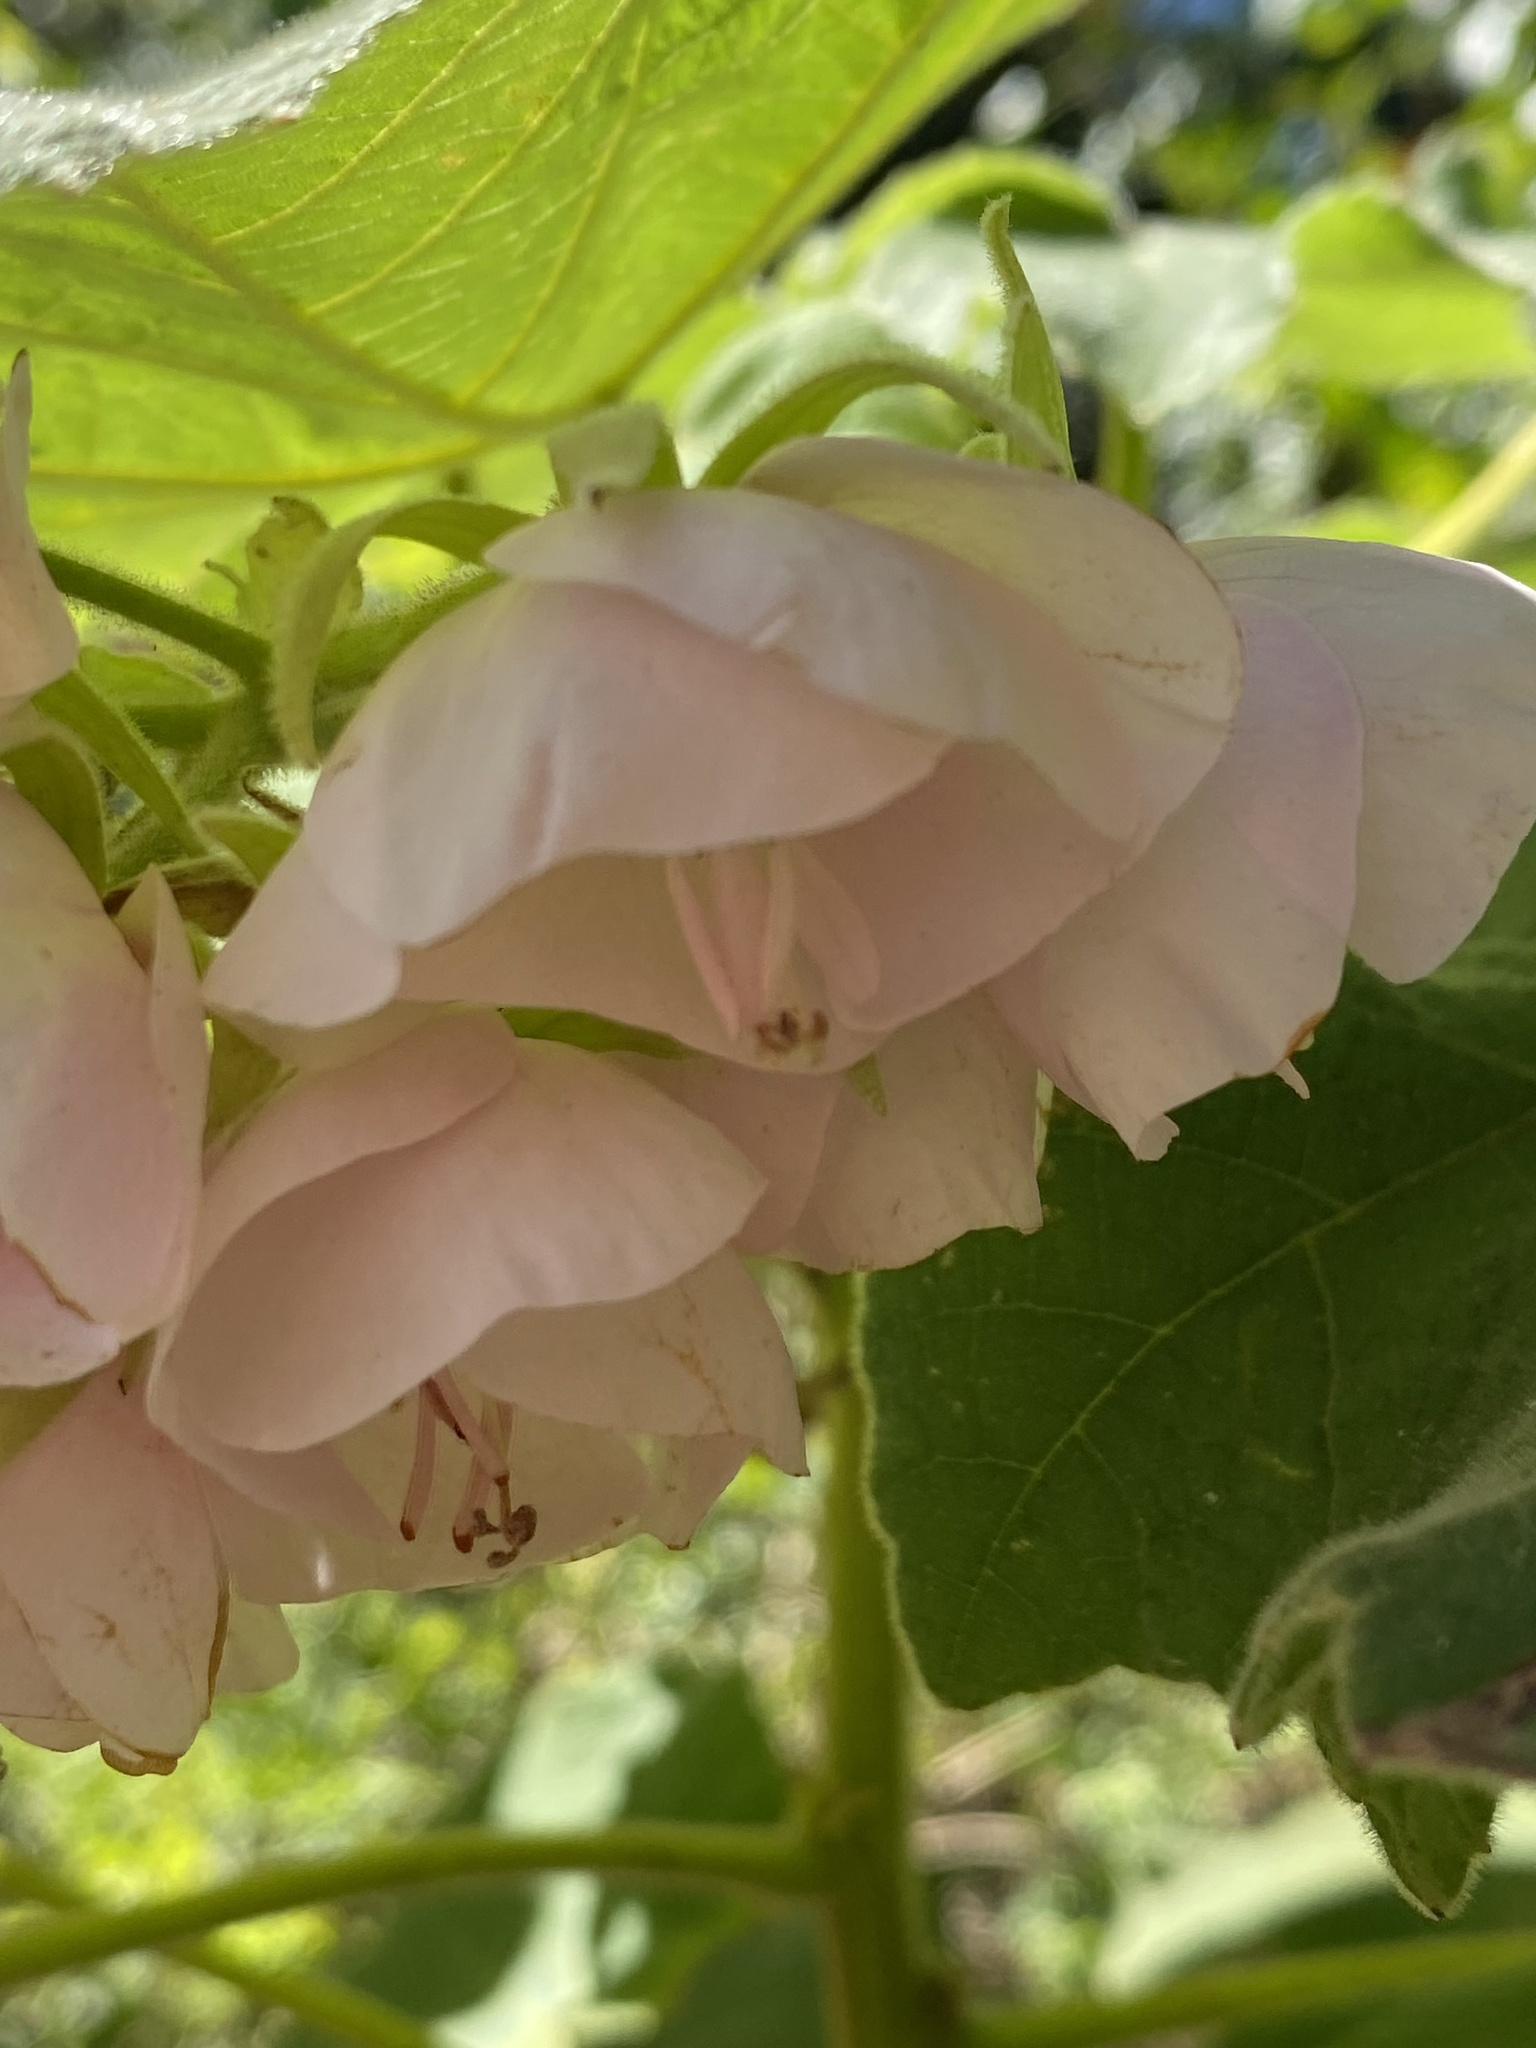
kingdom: Plantae
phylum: Tracheophyta
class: Magnoliopsida
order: Malvales
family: Malvaceae
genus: Dombeya
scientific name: Dombeya burgessiae
